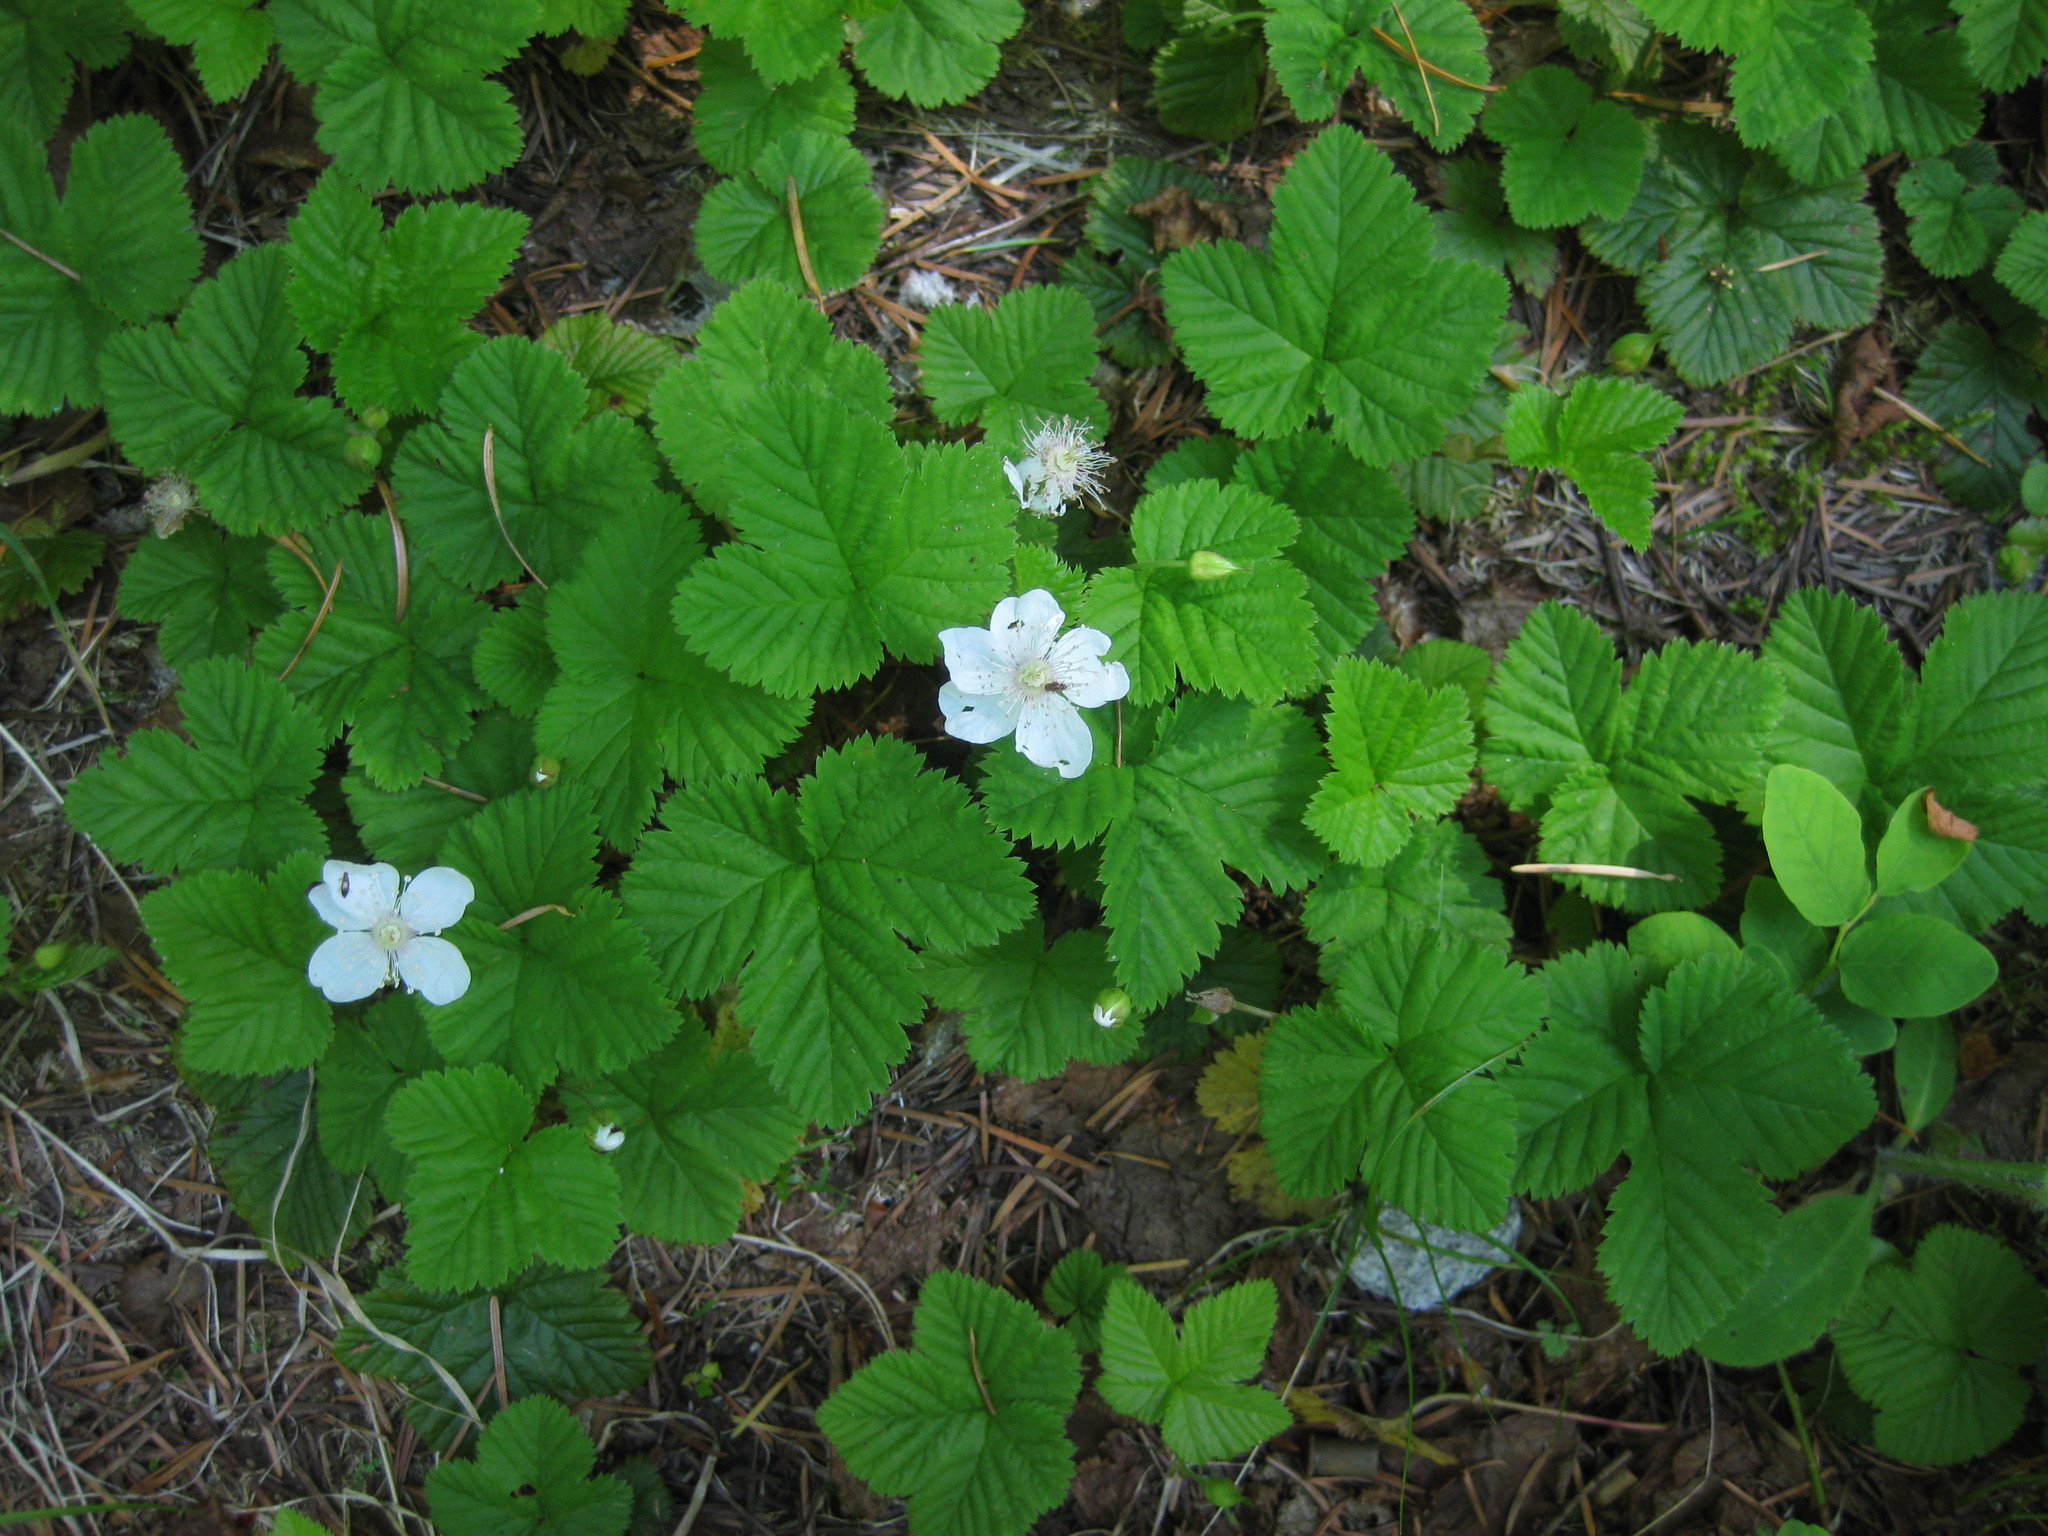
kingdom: Plantae
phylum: Tracheophyta
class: Magnoliopsida
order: Rosales
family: Rosaceae
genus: Rubus
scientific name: Rubus lasiococcus
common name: Dwarf bramble
